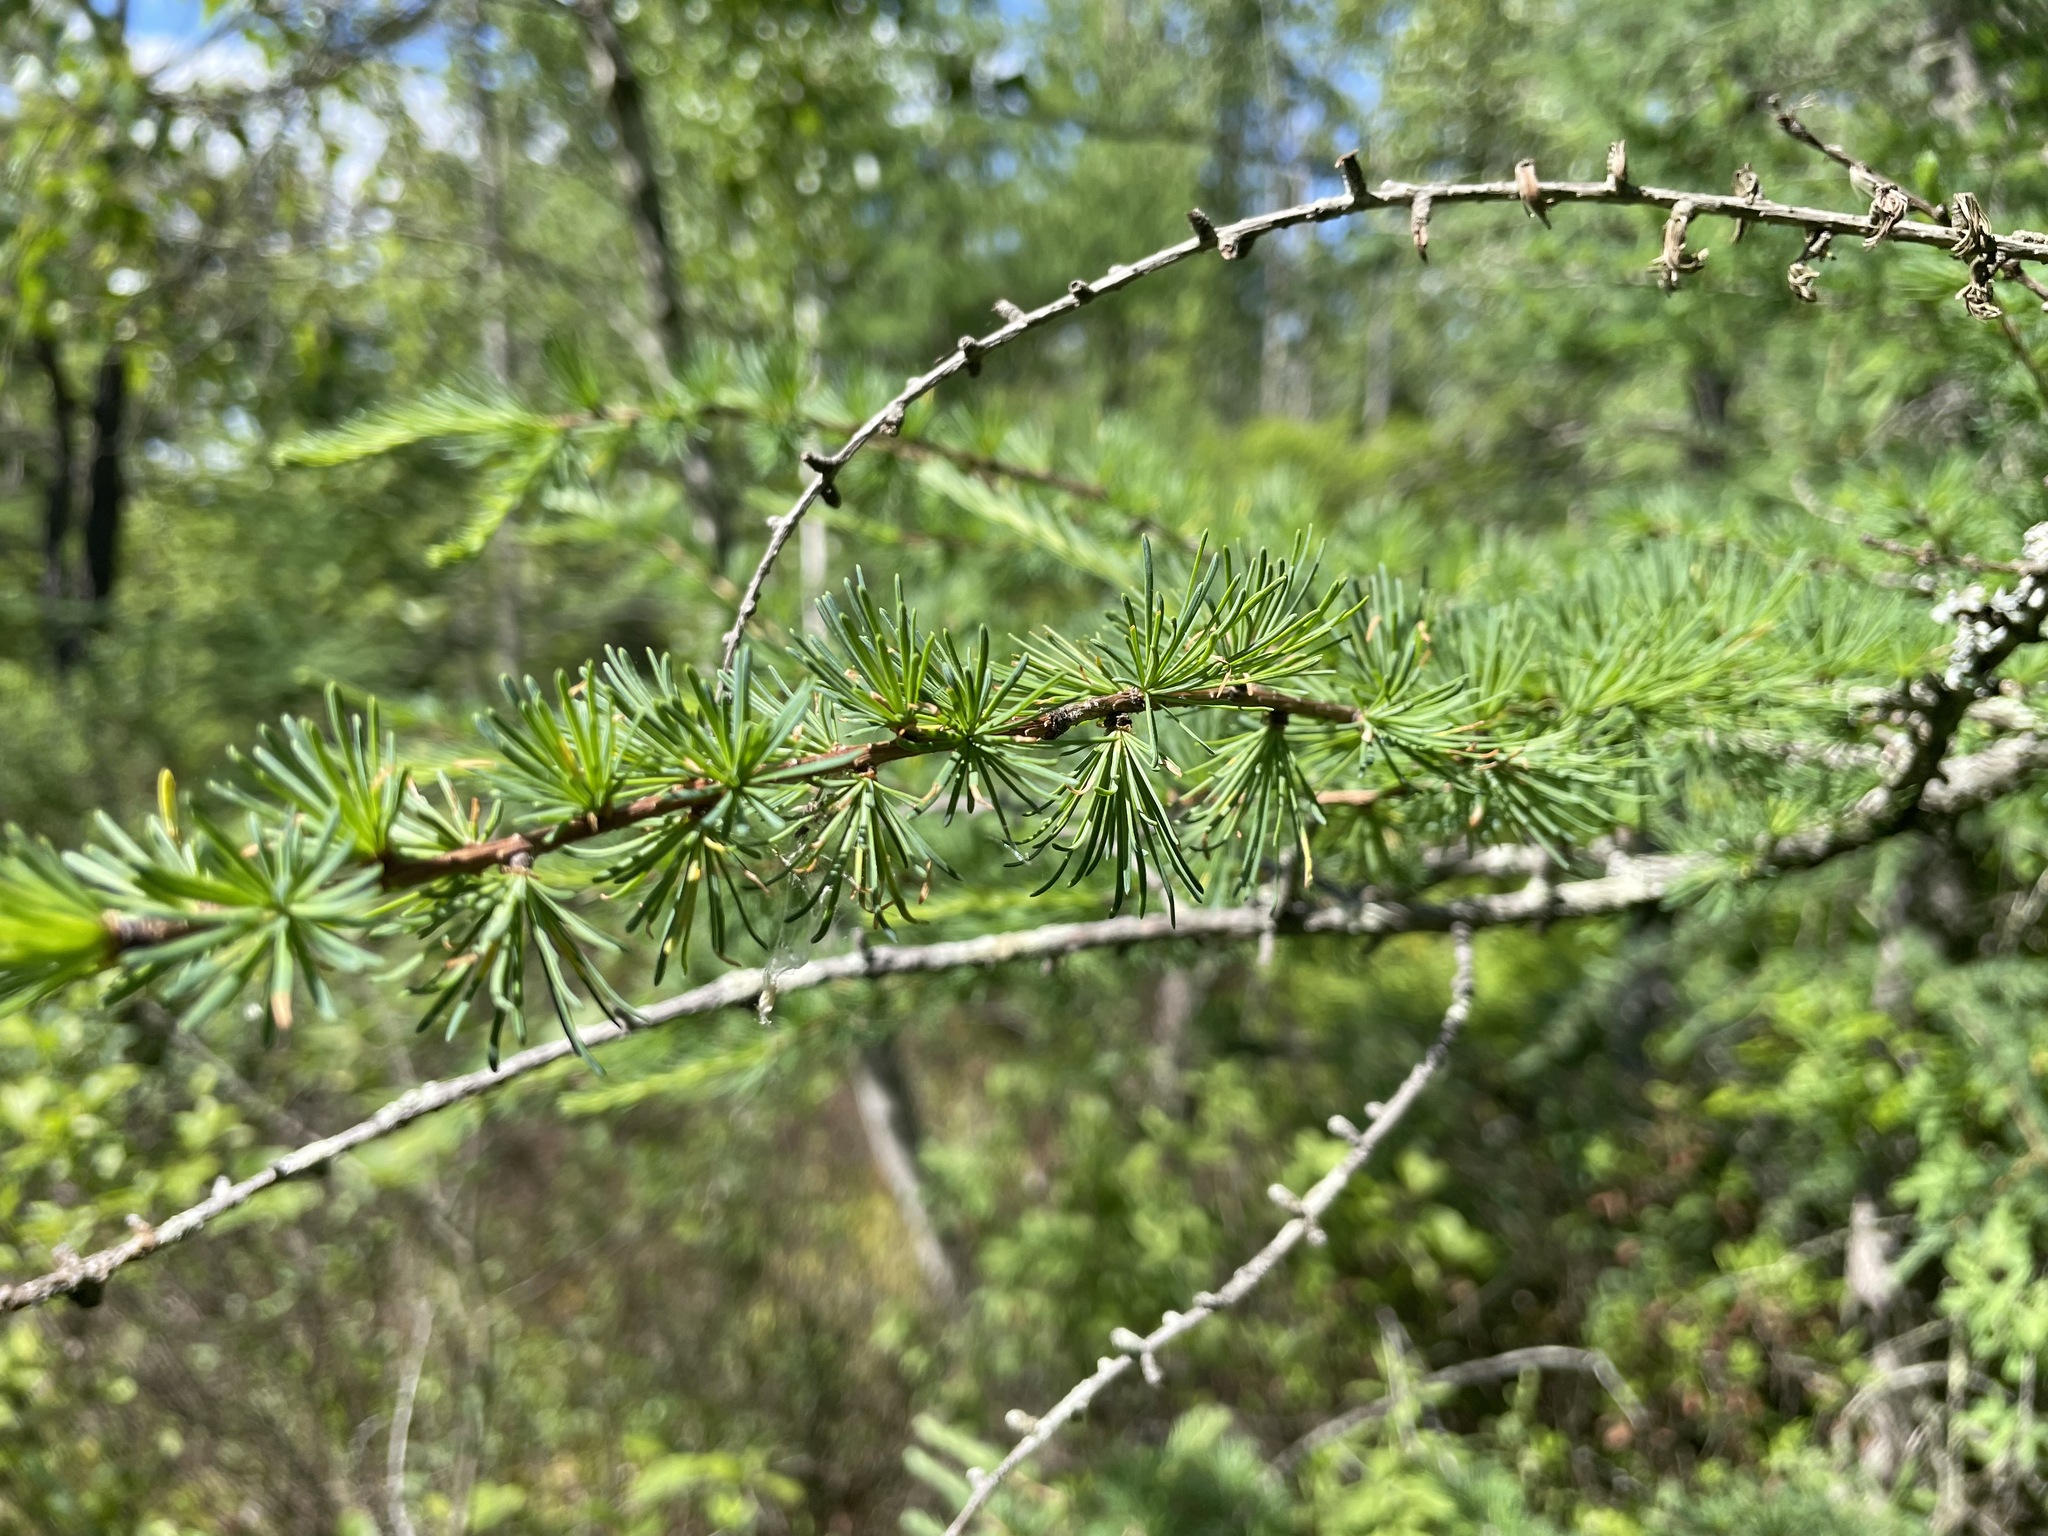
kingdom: Plantae
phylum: Tracheophyta
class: Pinopsida
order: Pinales
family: Pinaceae
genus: Larix
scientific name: Larix laricina
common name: American larch
